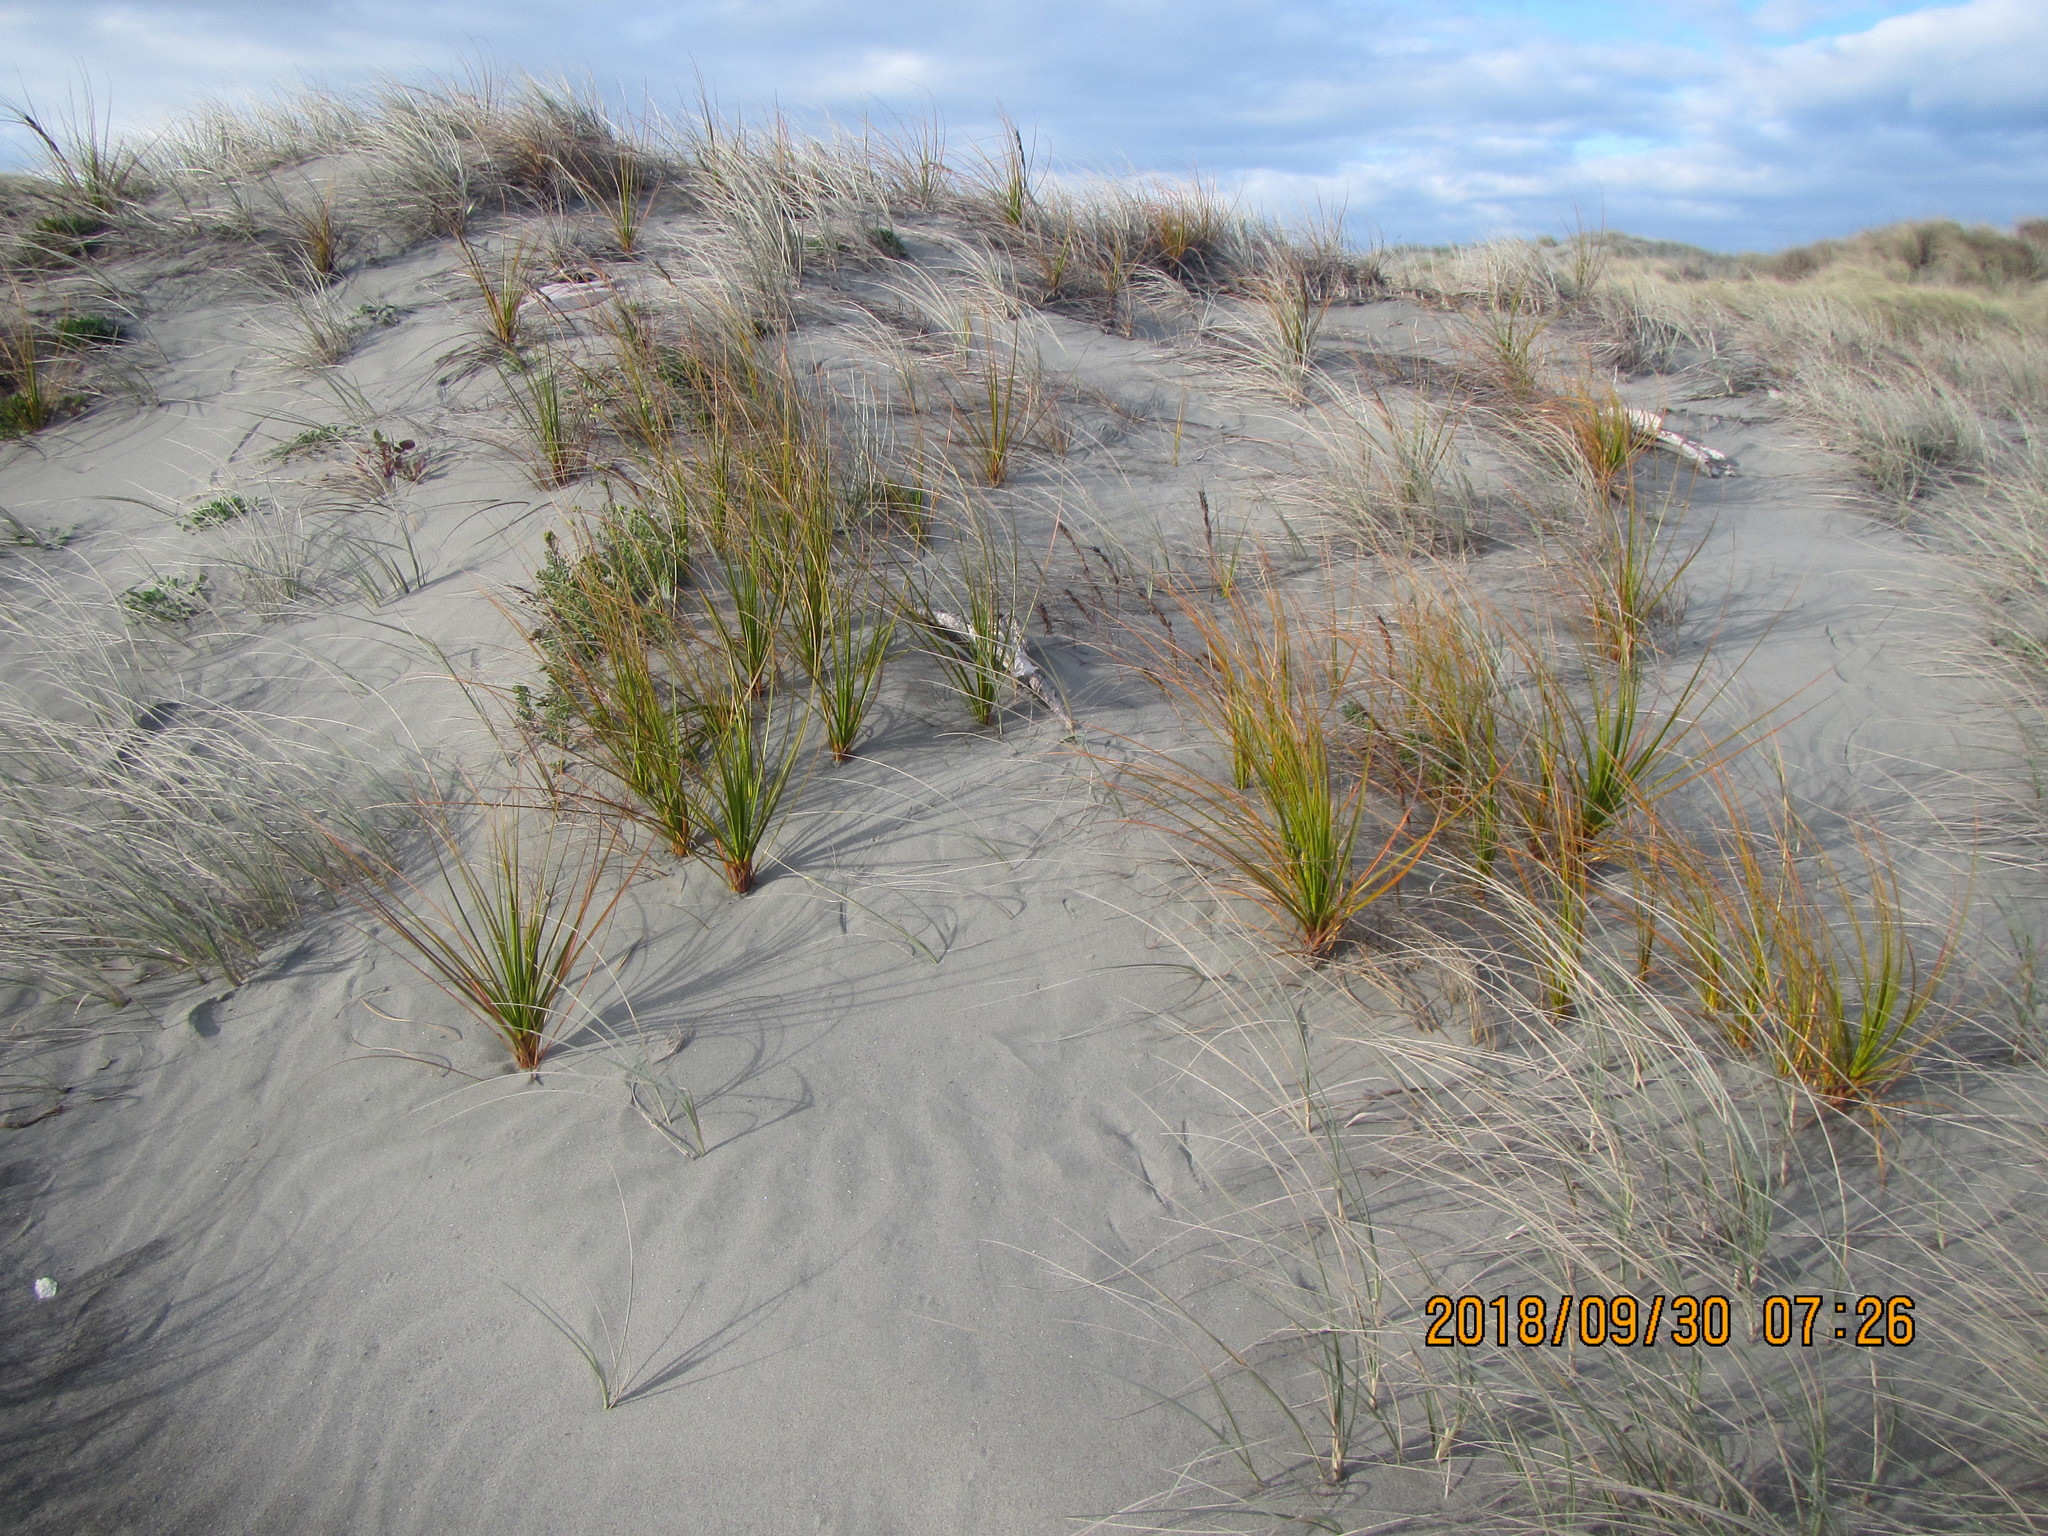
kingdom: Plantae
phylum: Tracheophyta
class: Liliopsida
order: Poales
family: Cyperaceae
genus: Ficinia
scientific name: Ficinia spiralis
